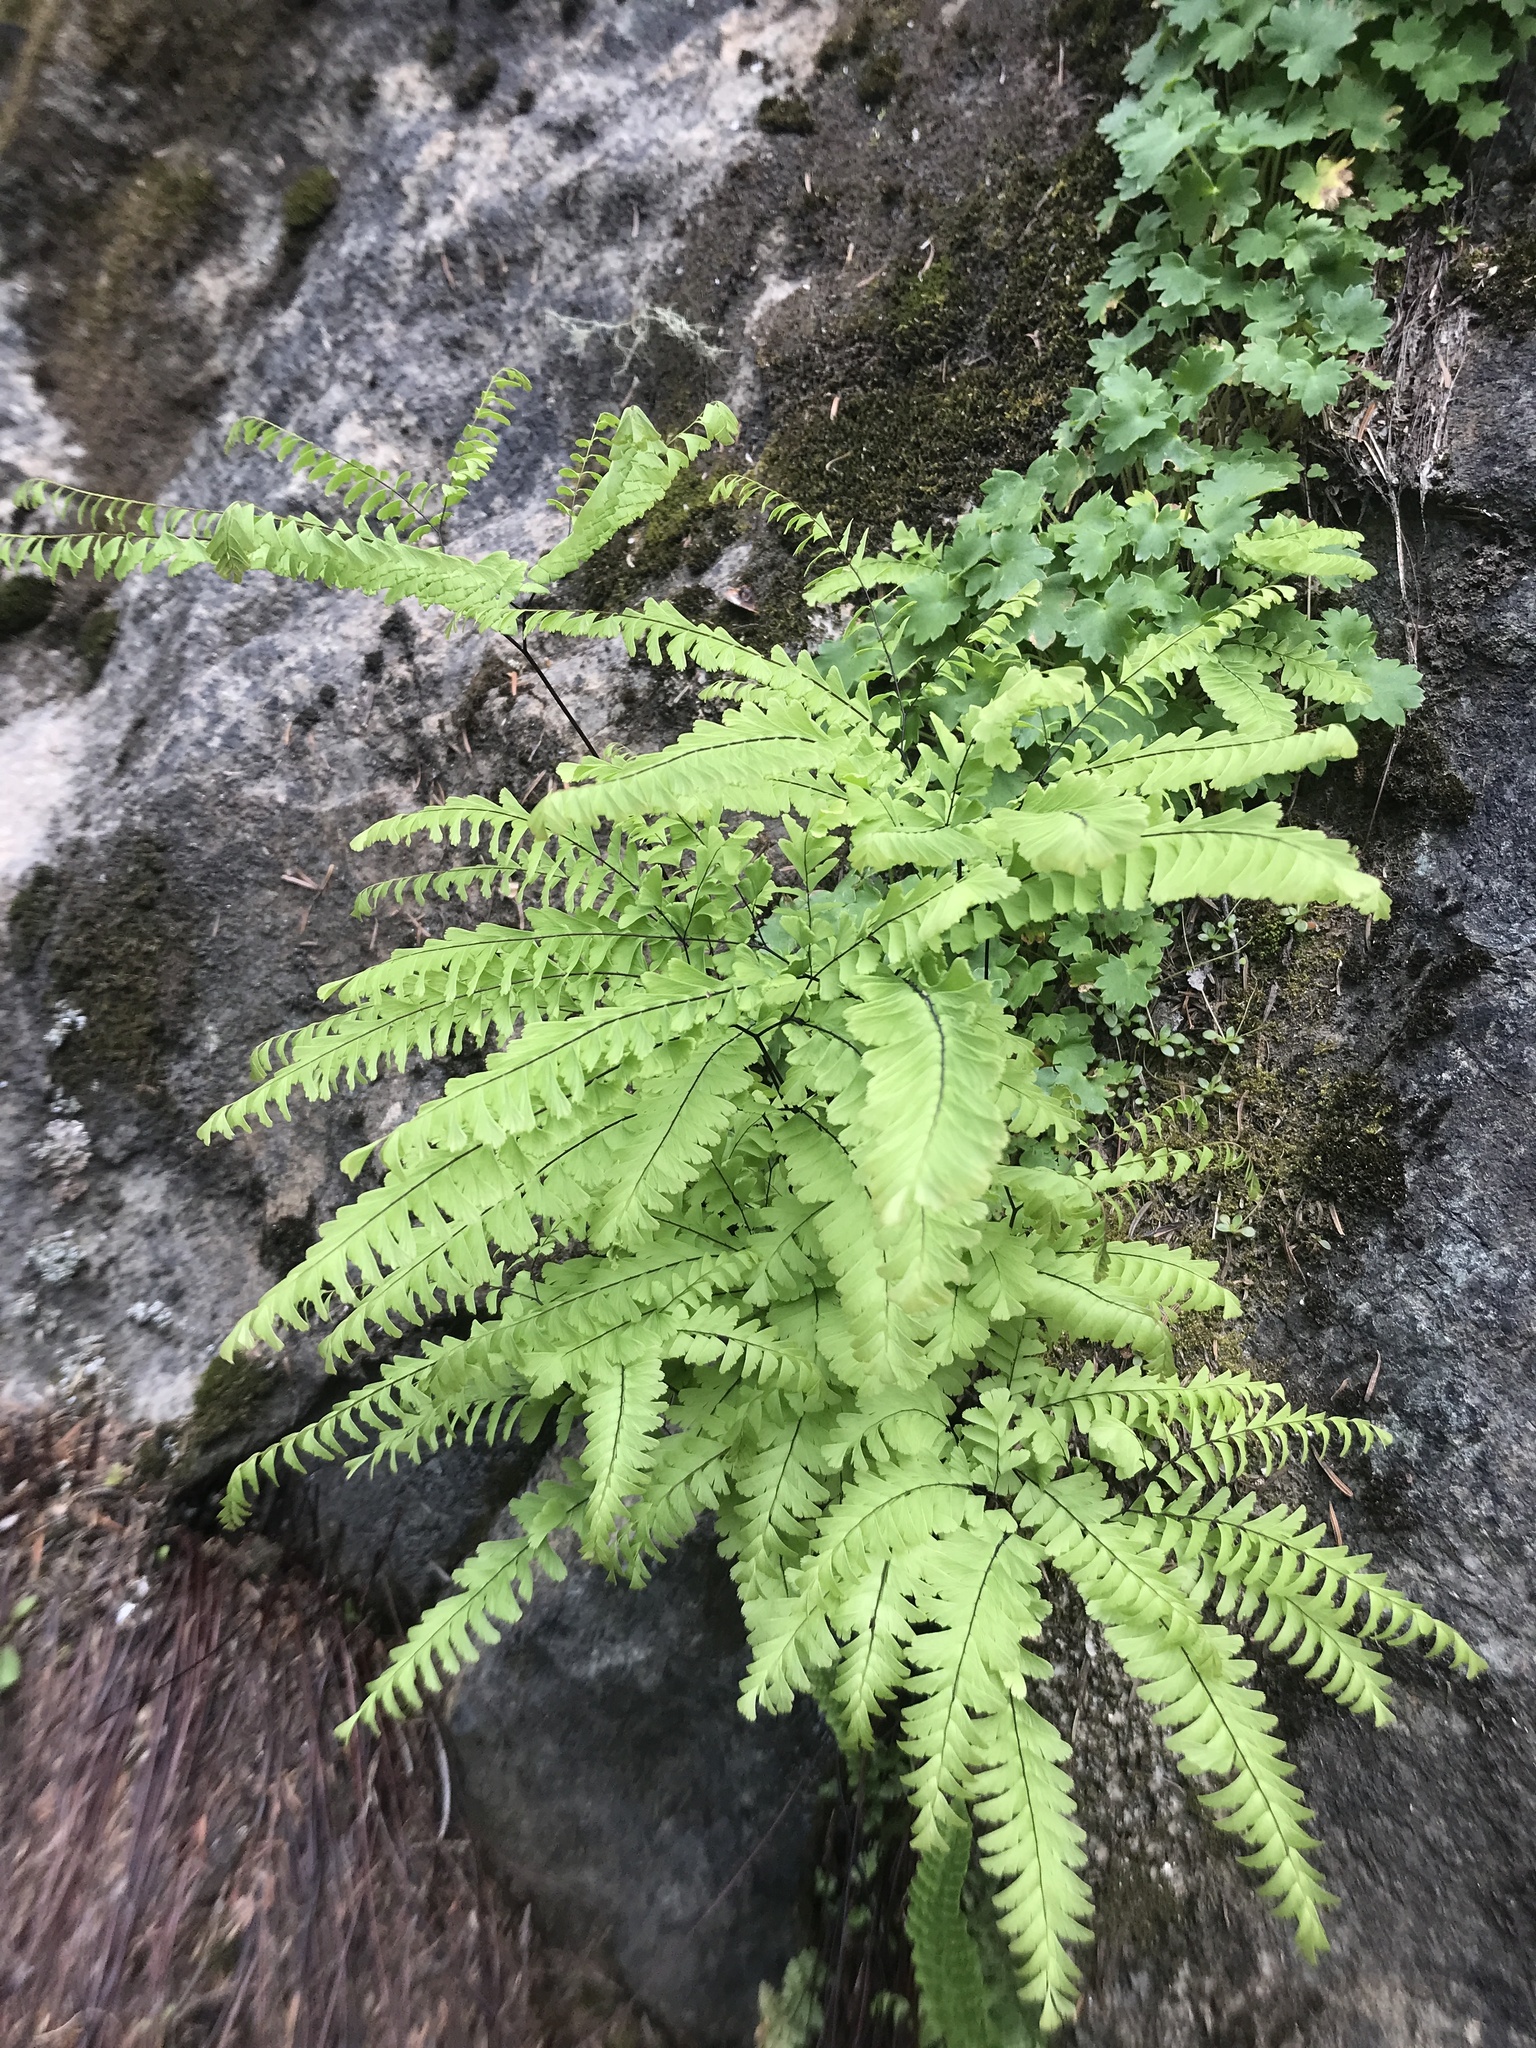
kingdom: Plantae
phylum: Tracheophyta
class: Polypodiopsida
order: Polypodiales
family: Pteridaceae
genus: Adiantum
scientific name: Adiantum aleuticum
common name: Aleutian maidenhair fern
